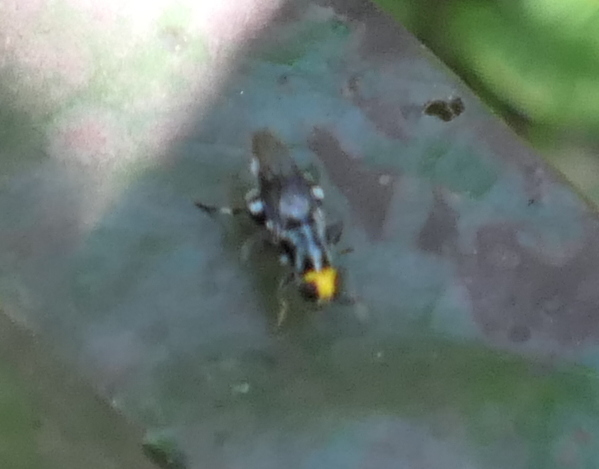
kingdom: Animalia
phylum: Arthropoda
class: Insecta
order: Diptera
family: Stratiomyidae
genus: Cyphomyia
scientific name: Cyphomyia wiedemanni
